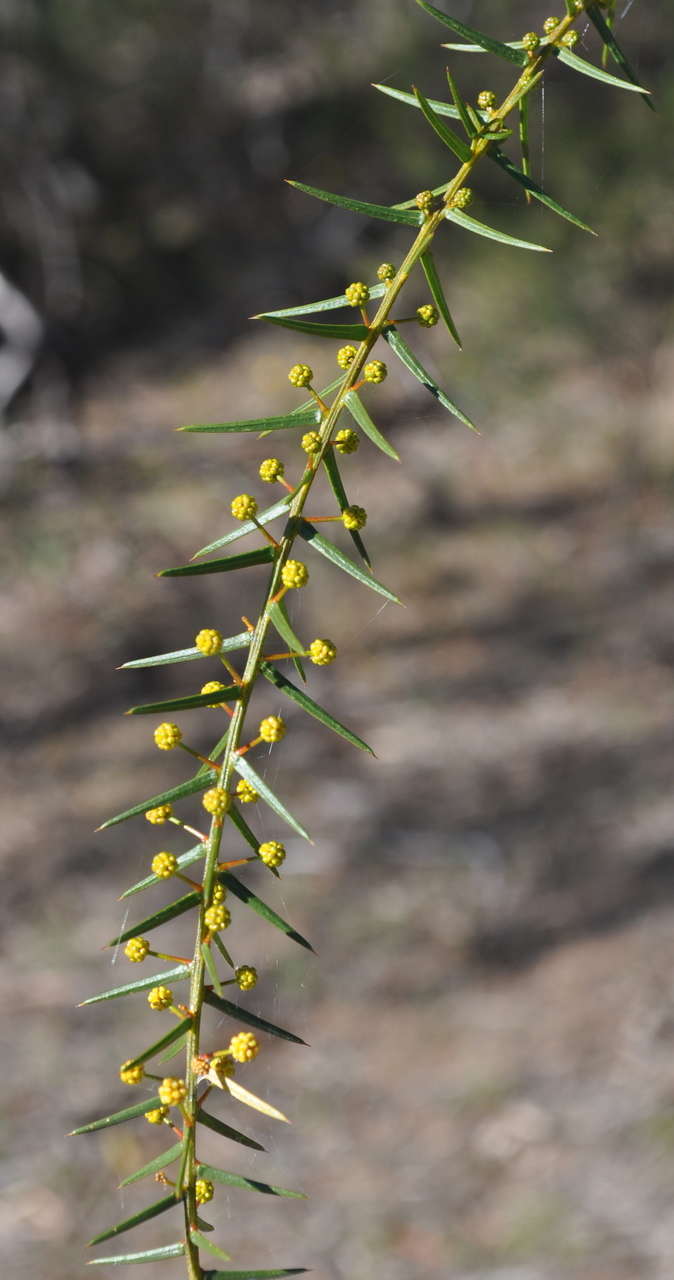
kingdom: Plantae
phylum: Tracheophyta
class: Magnoliopsida
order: Fabales
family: Fabaceae
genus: Acacia
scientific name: Acacia rupicola
